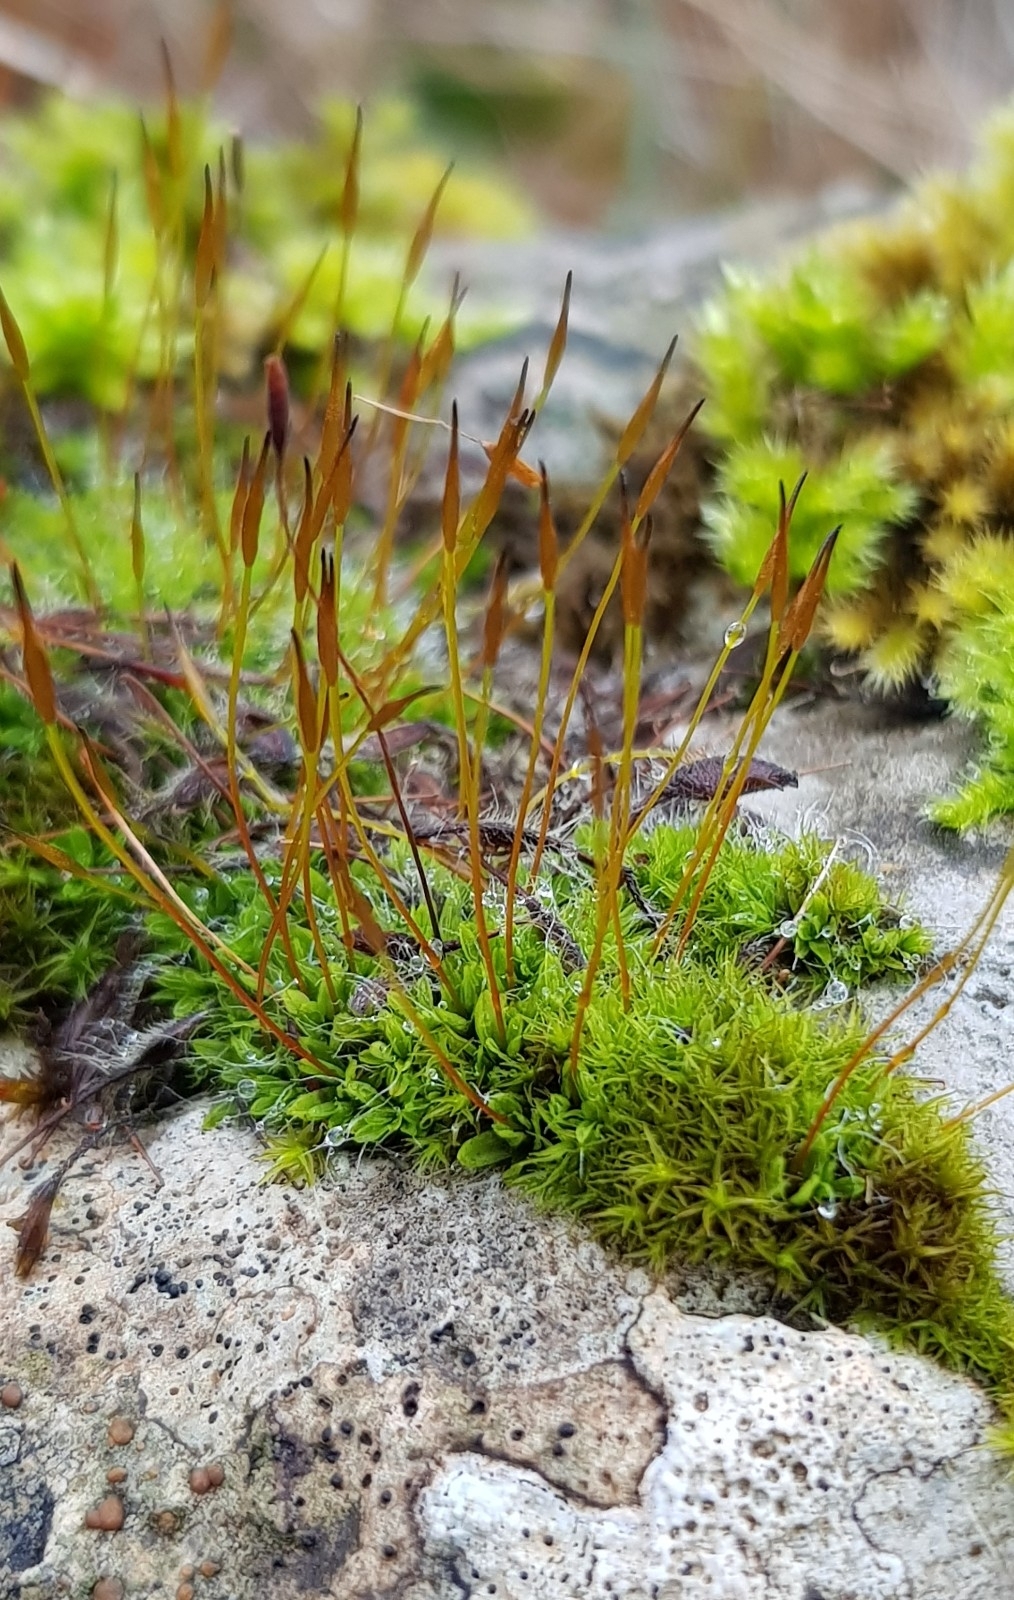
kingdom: Plantae
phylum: Bryophyta
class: Bryopsida
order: Pottiales
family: Pottiaceae
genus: Tortula
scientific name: Tortula muralis
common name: Wall screw-moss
